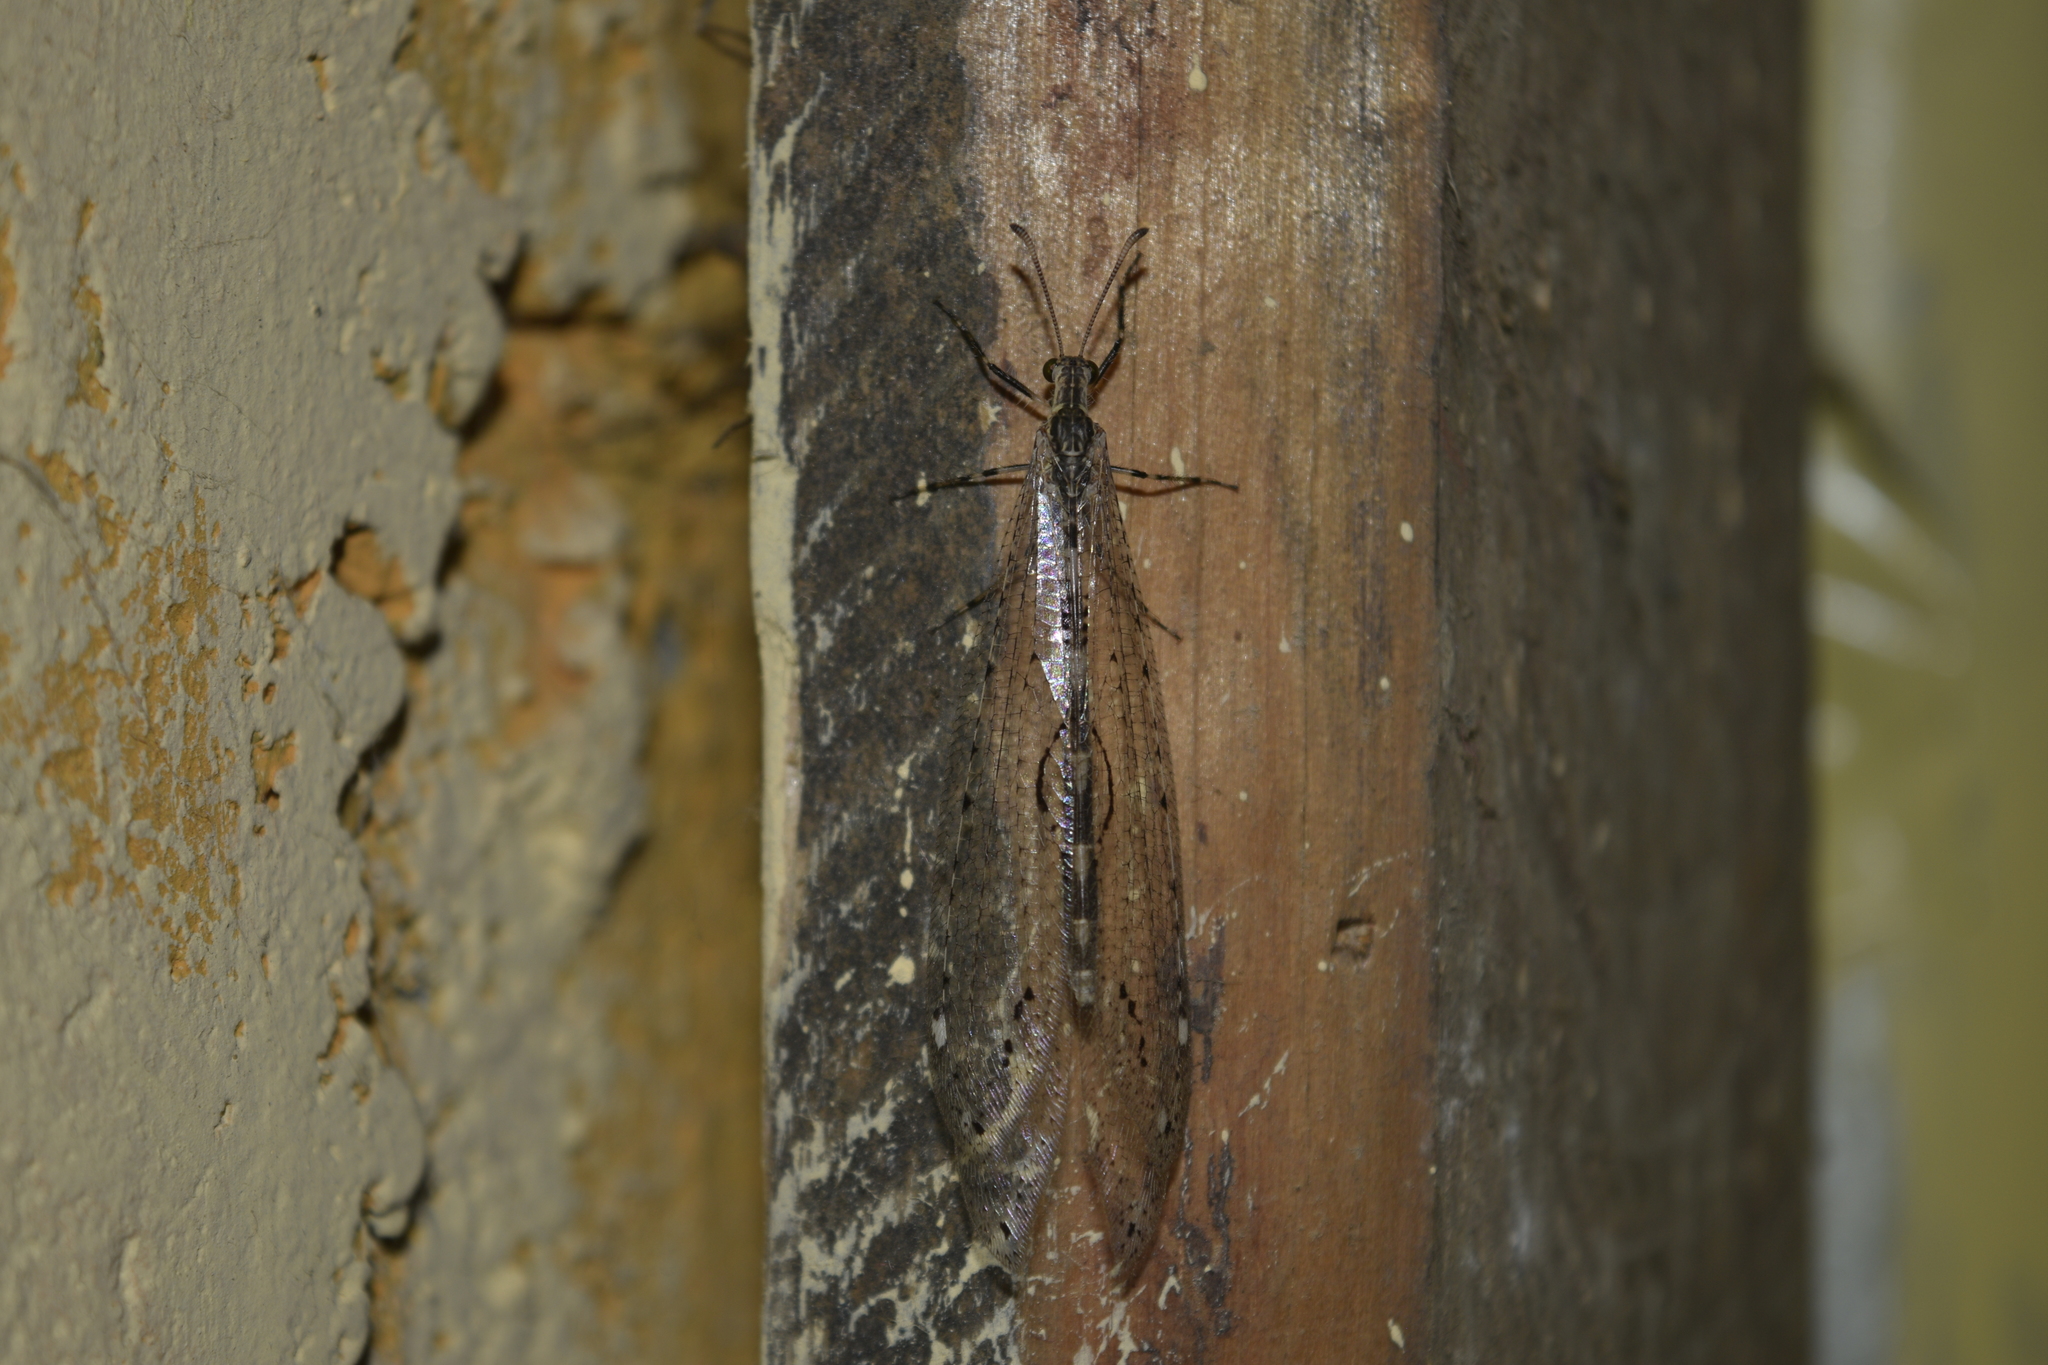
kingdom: Animalia
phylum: Arthropoda
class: Insecta
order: Neuroptera
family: Myrmeleontidae
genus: Eremoleon
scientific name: Eremoleon genini
